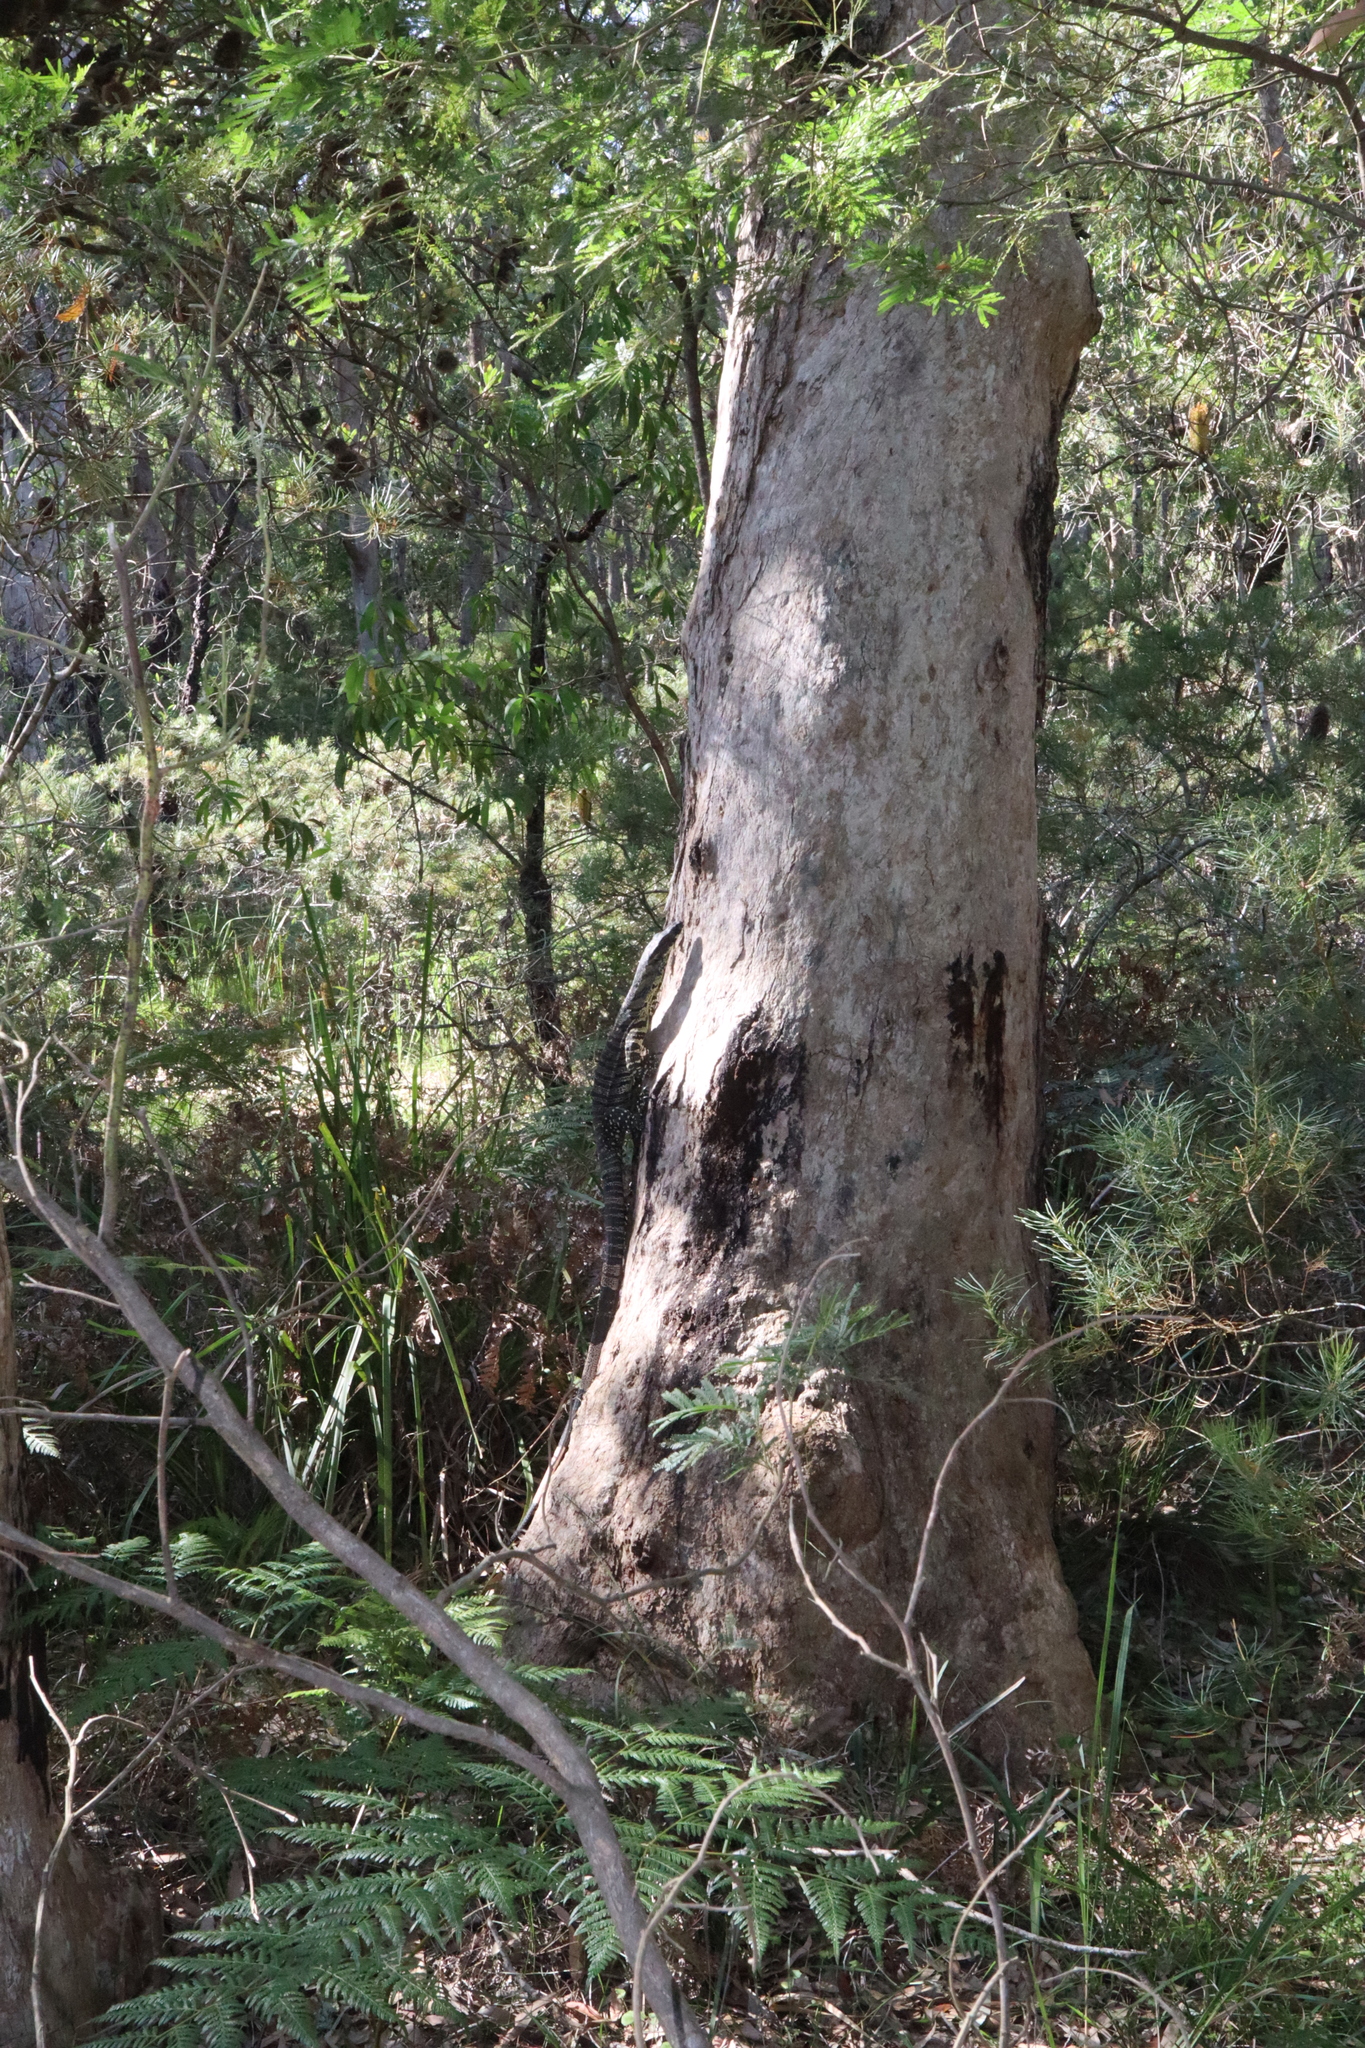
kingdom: Animalia
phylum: Chordata
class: Squamata
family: Varanidae
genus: Varanus
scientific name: Varanus varius
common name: Lace monitor
